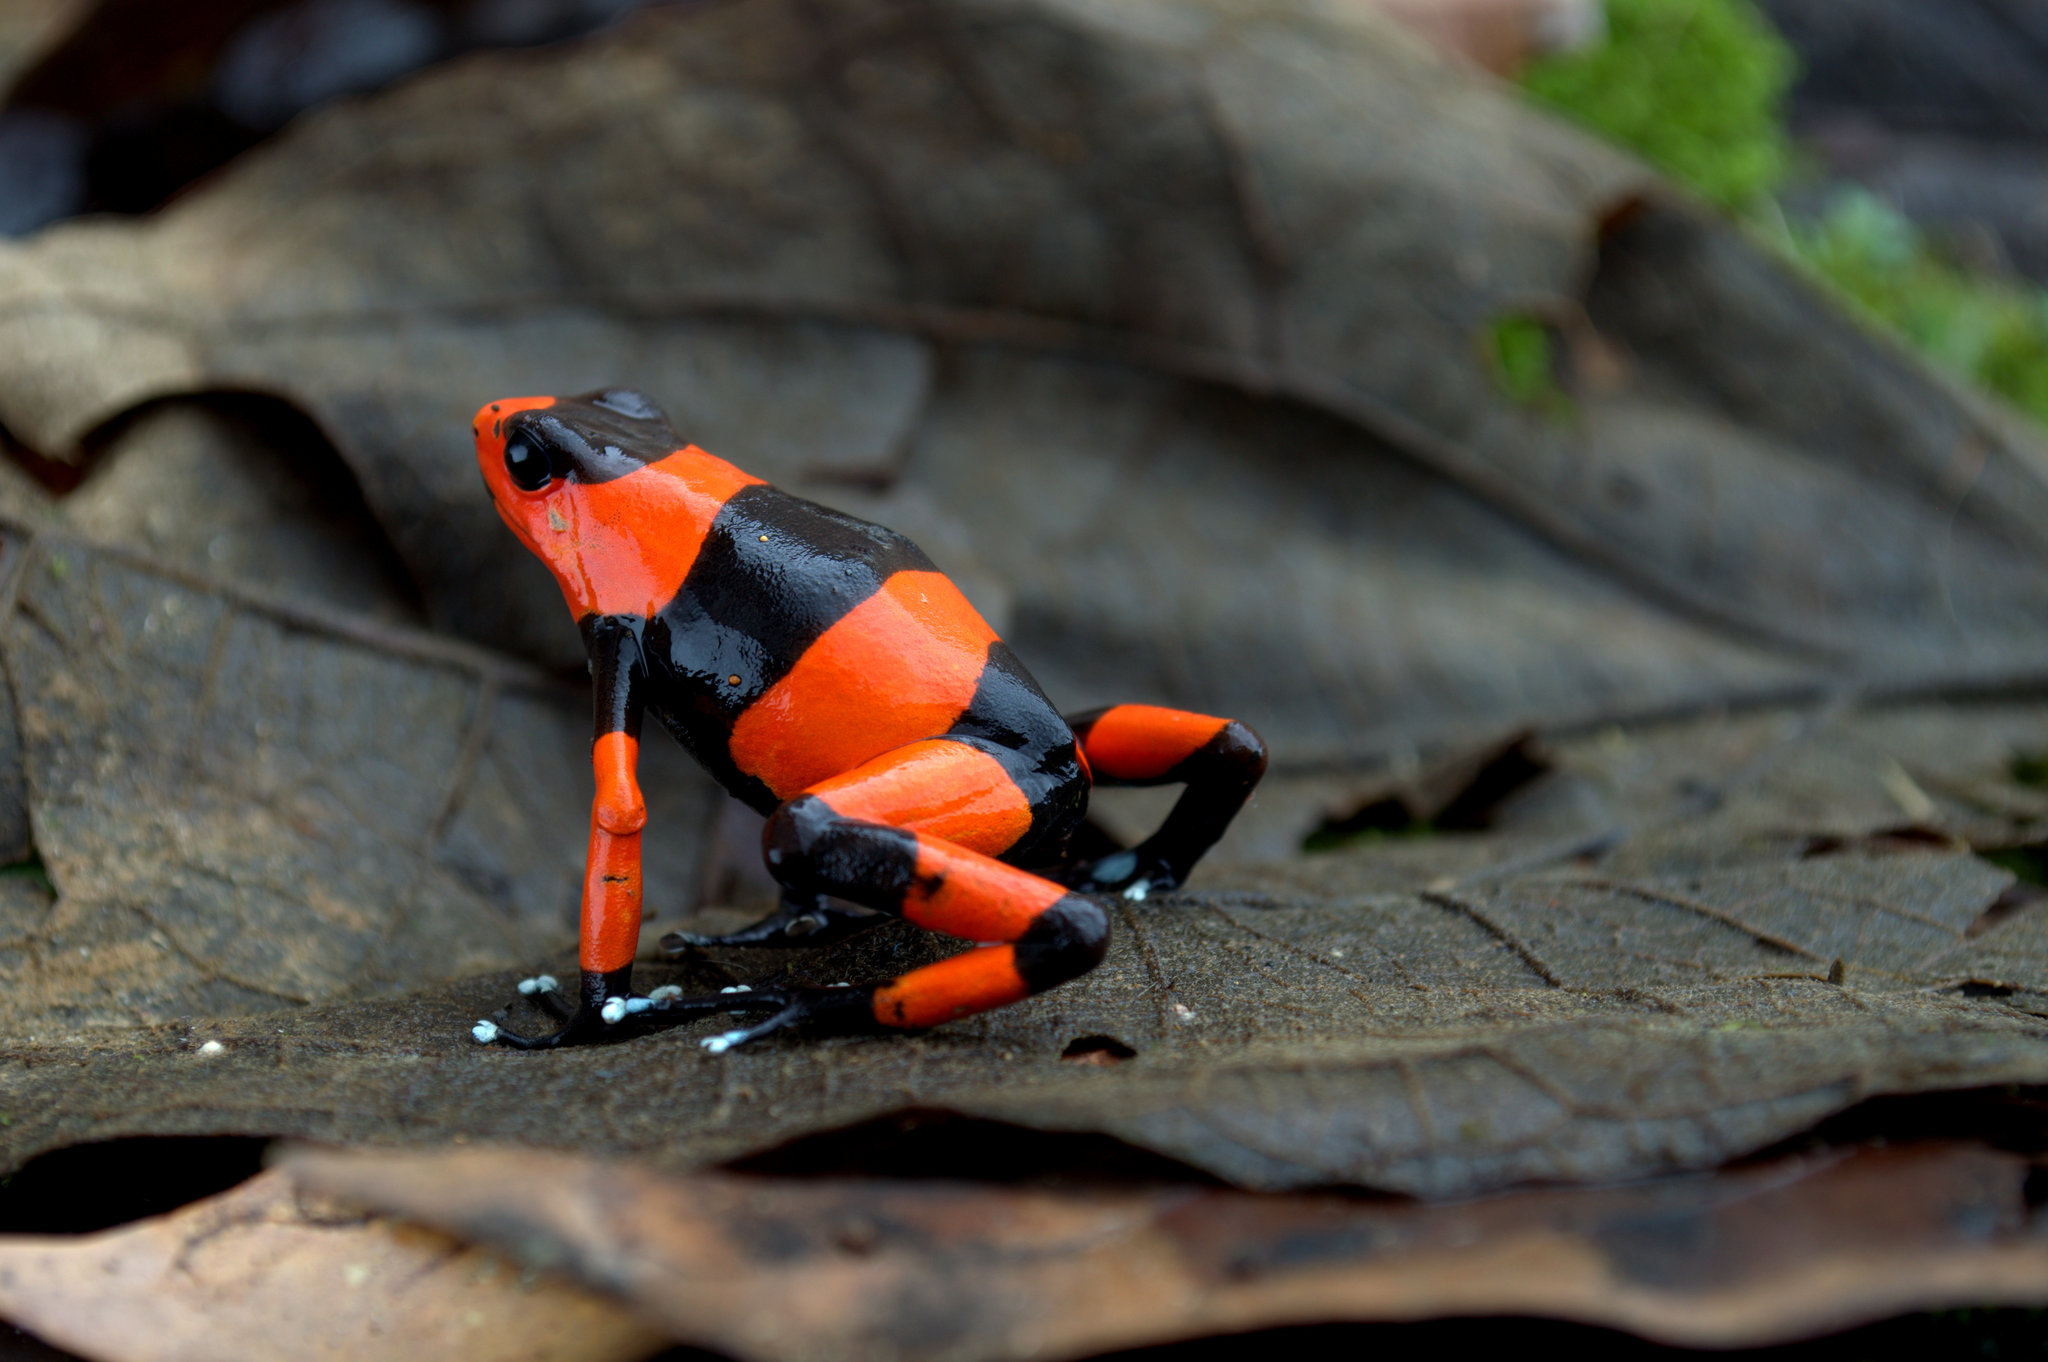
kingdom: Animalia
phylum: Chordata
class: Amphibia
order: Anura
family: Dendrobatidae
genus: Oophaga
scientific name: Oophaga lehmanni
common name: Lehmann's poison frog
